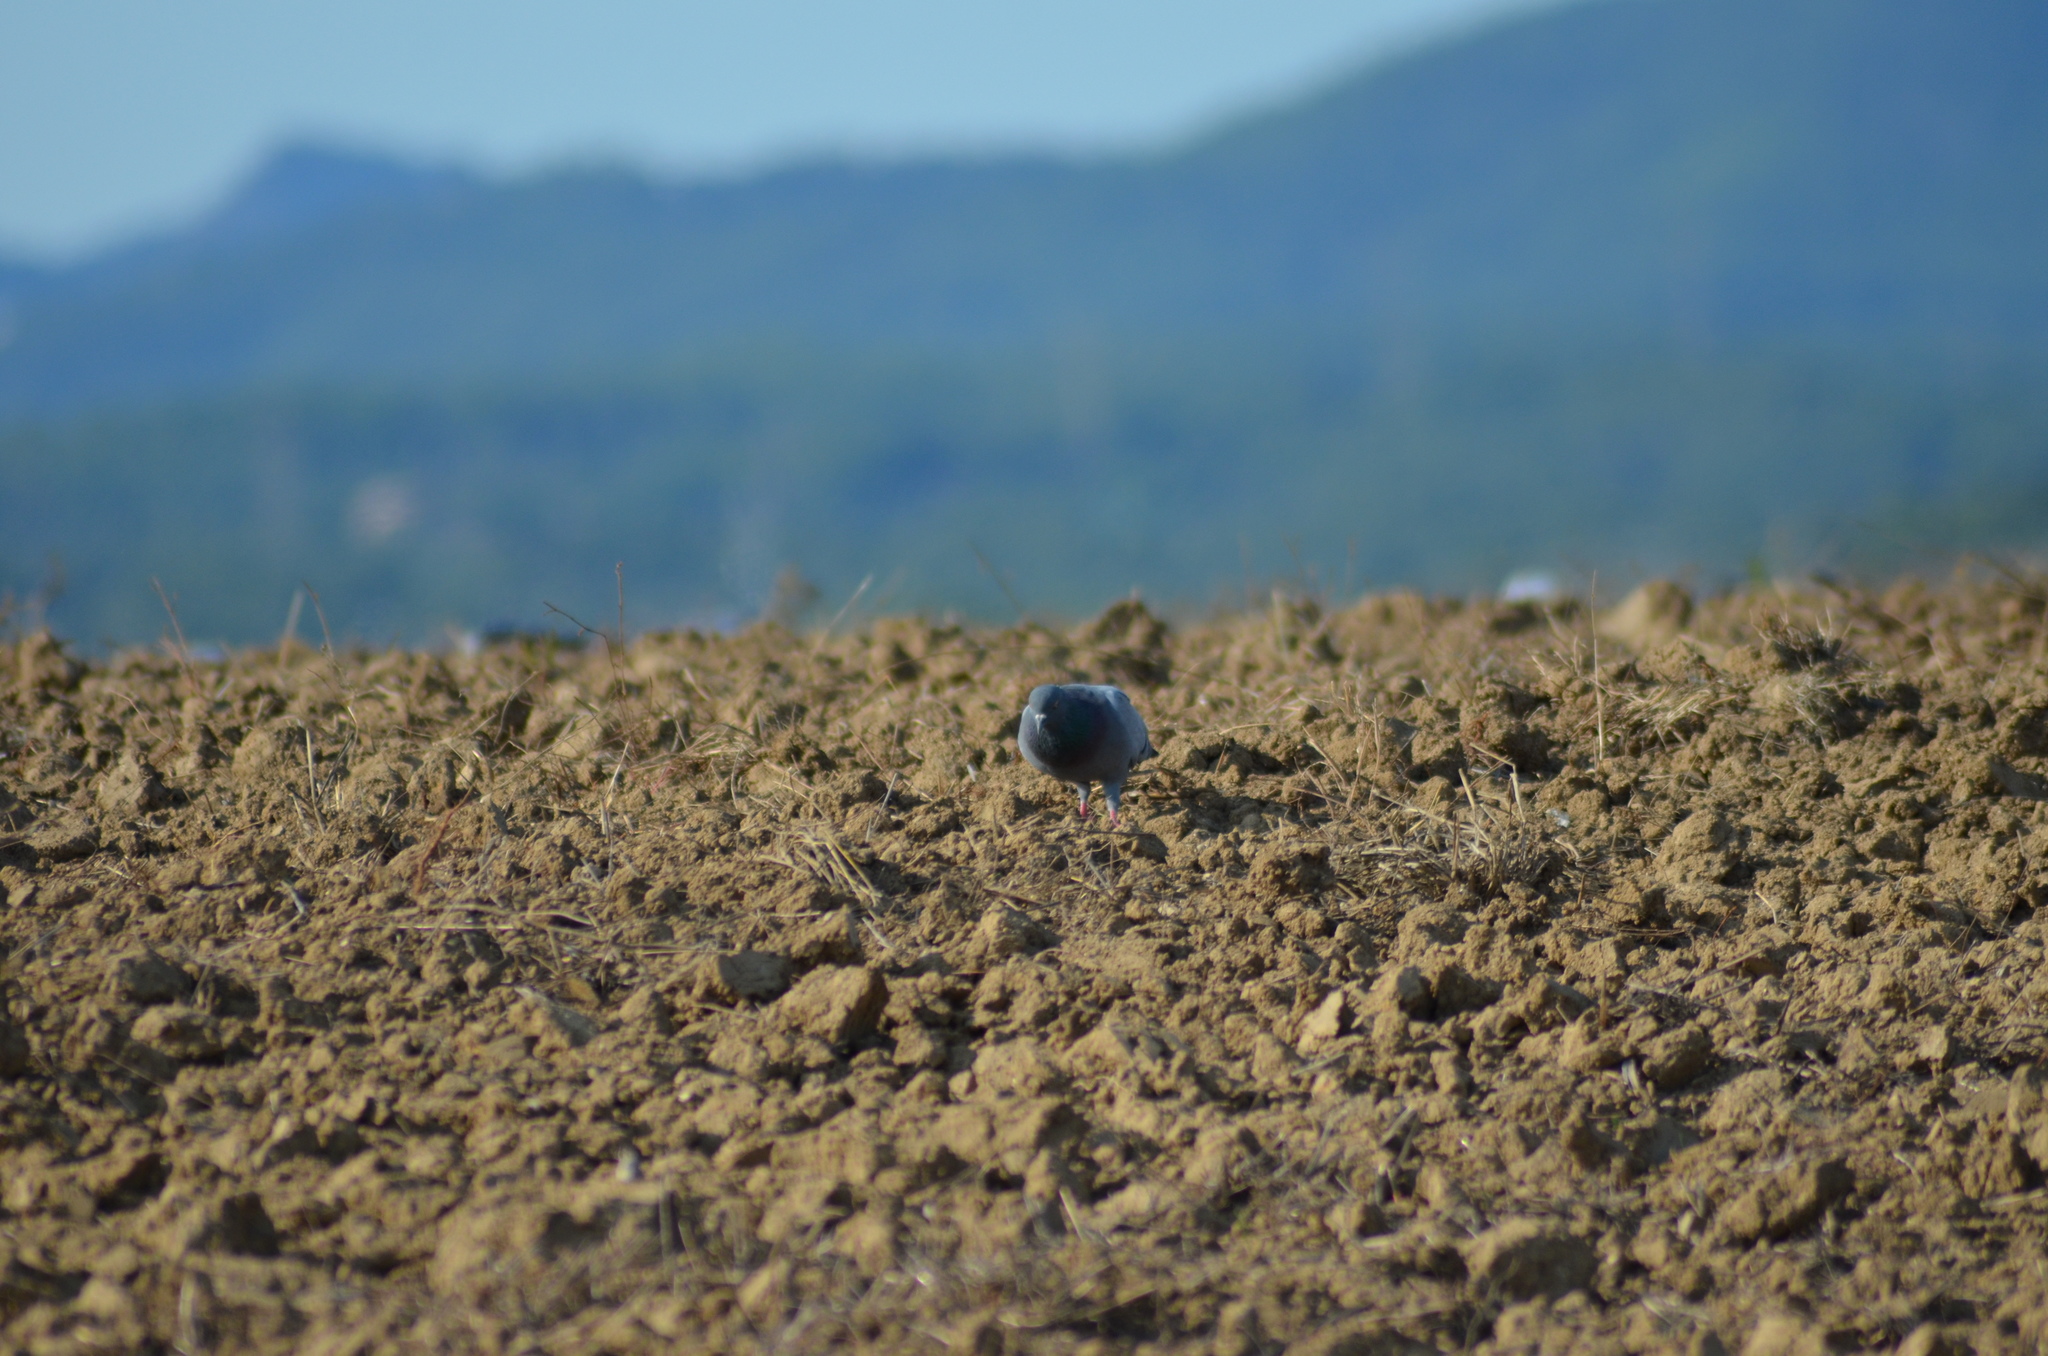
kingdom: Animalia
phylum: Chordata
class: Aves
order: Columbiformes
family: Columbidae
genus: Columba
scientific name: Columba livia
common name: Rock pigeon
